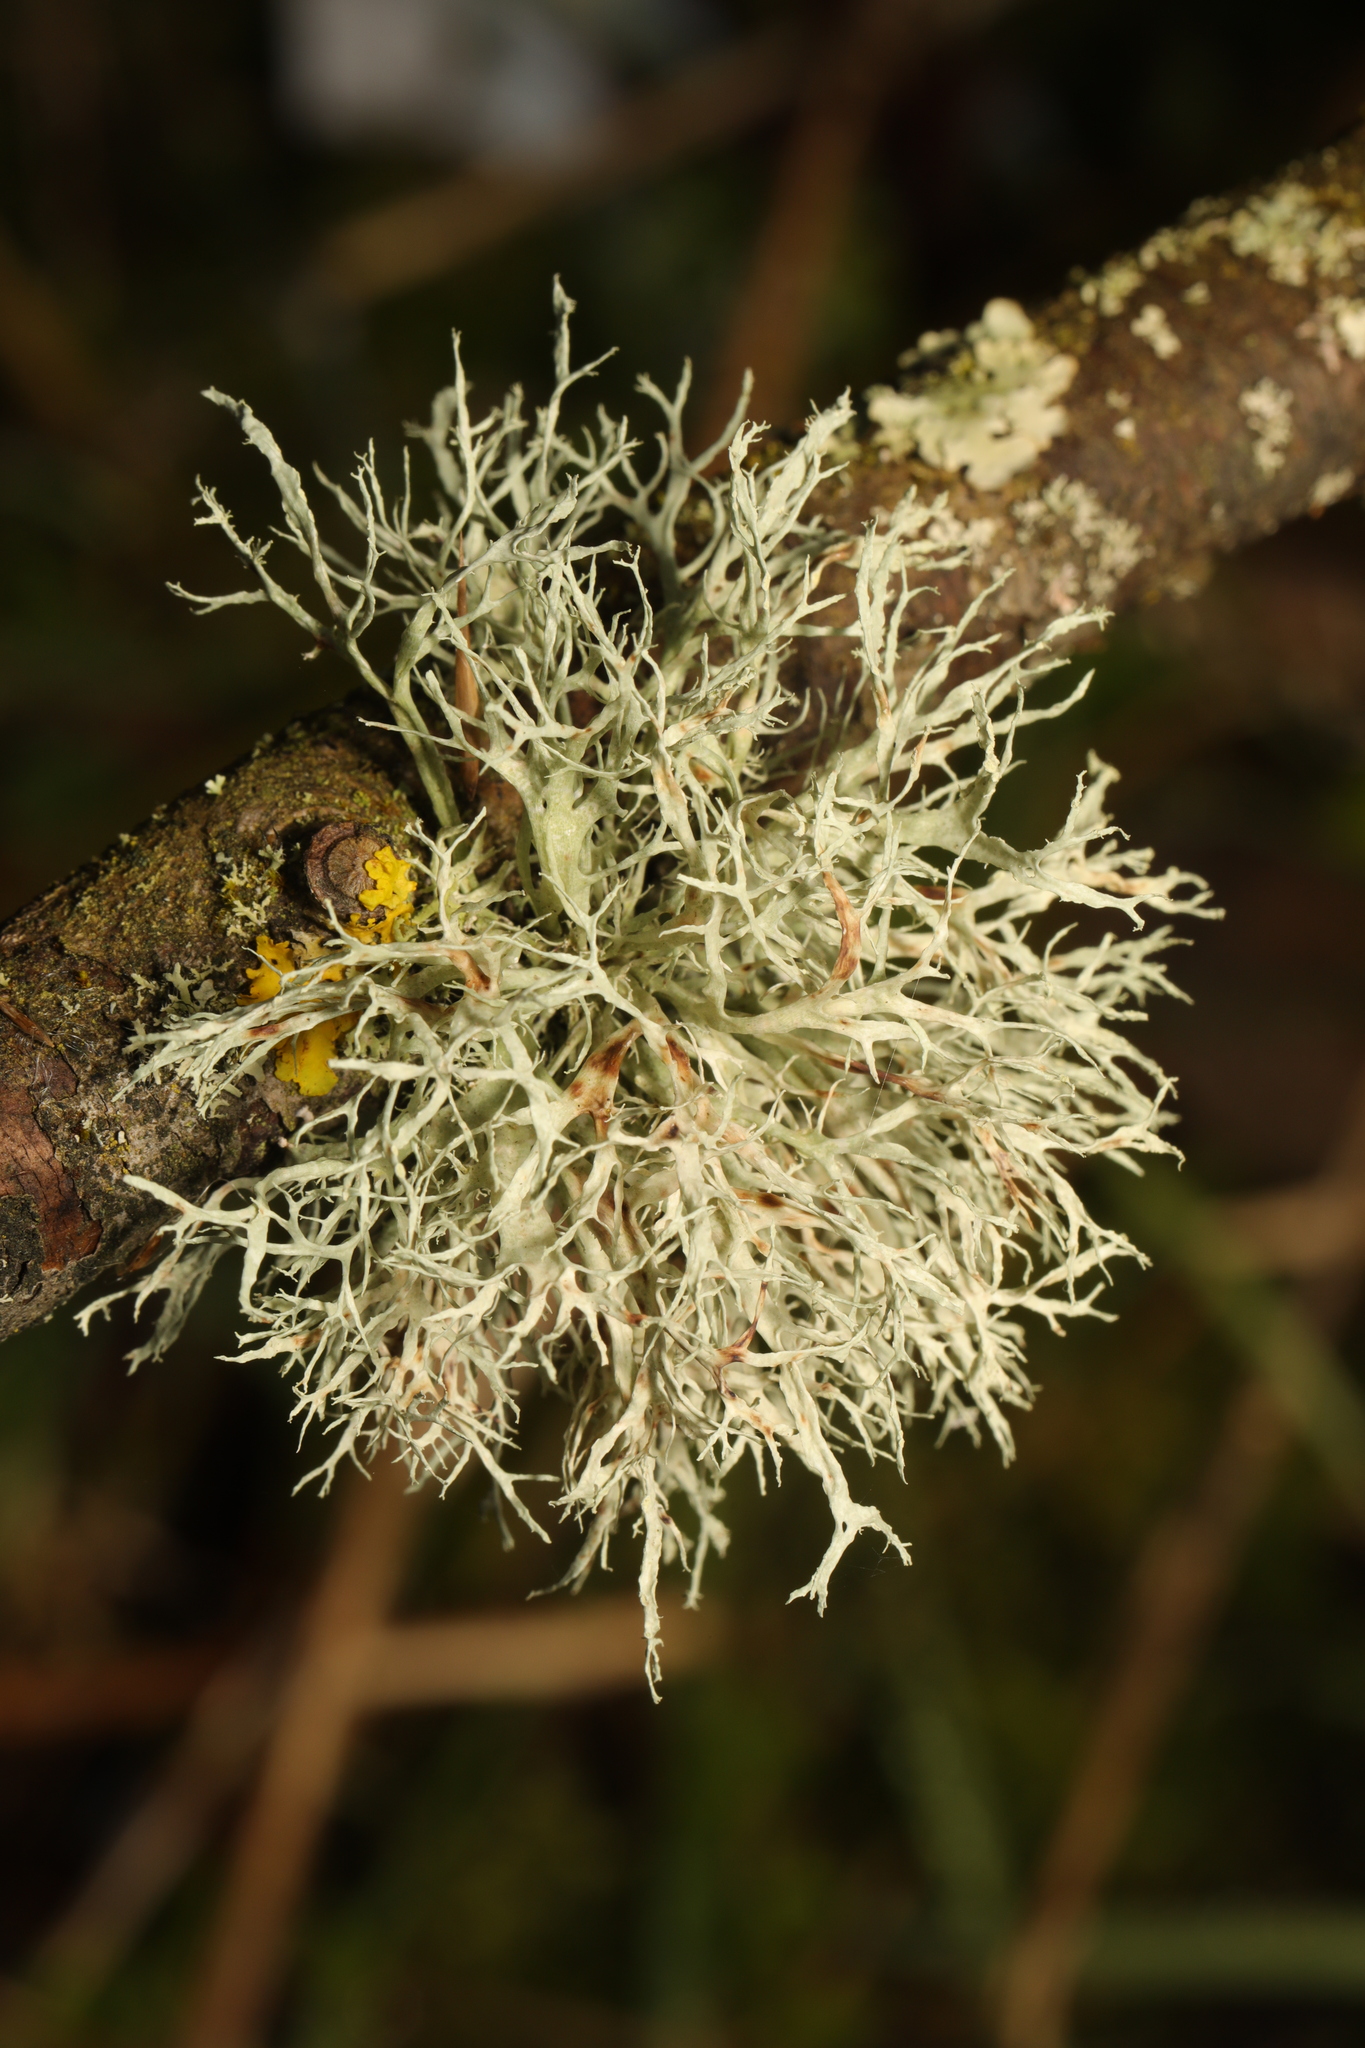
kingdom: Fungi
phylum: Ascomycota
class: Lecanoromycetes
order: Lecanorales
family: Ramalinaceae
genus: Ramalina
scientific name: Ramalina farinacea
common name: Farinose cartilage lichen
